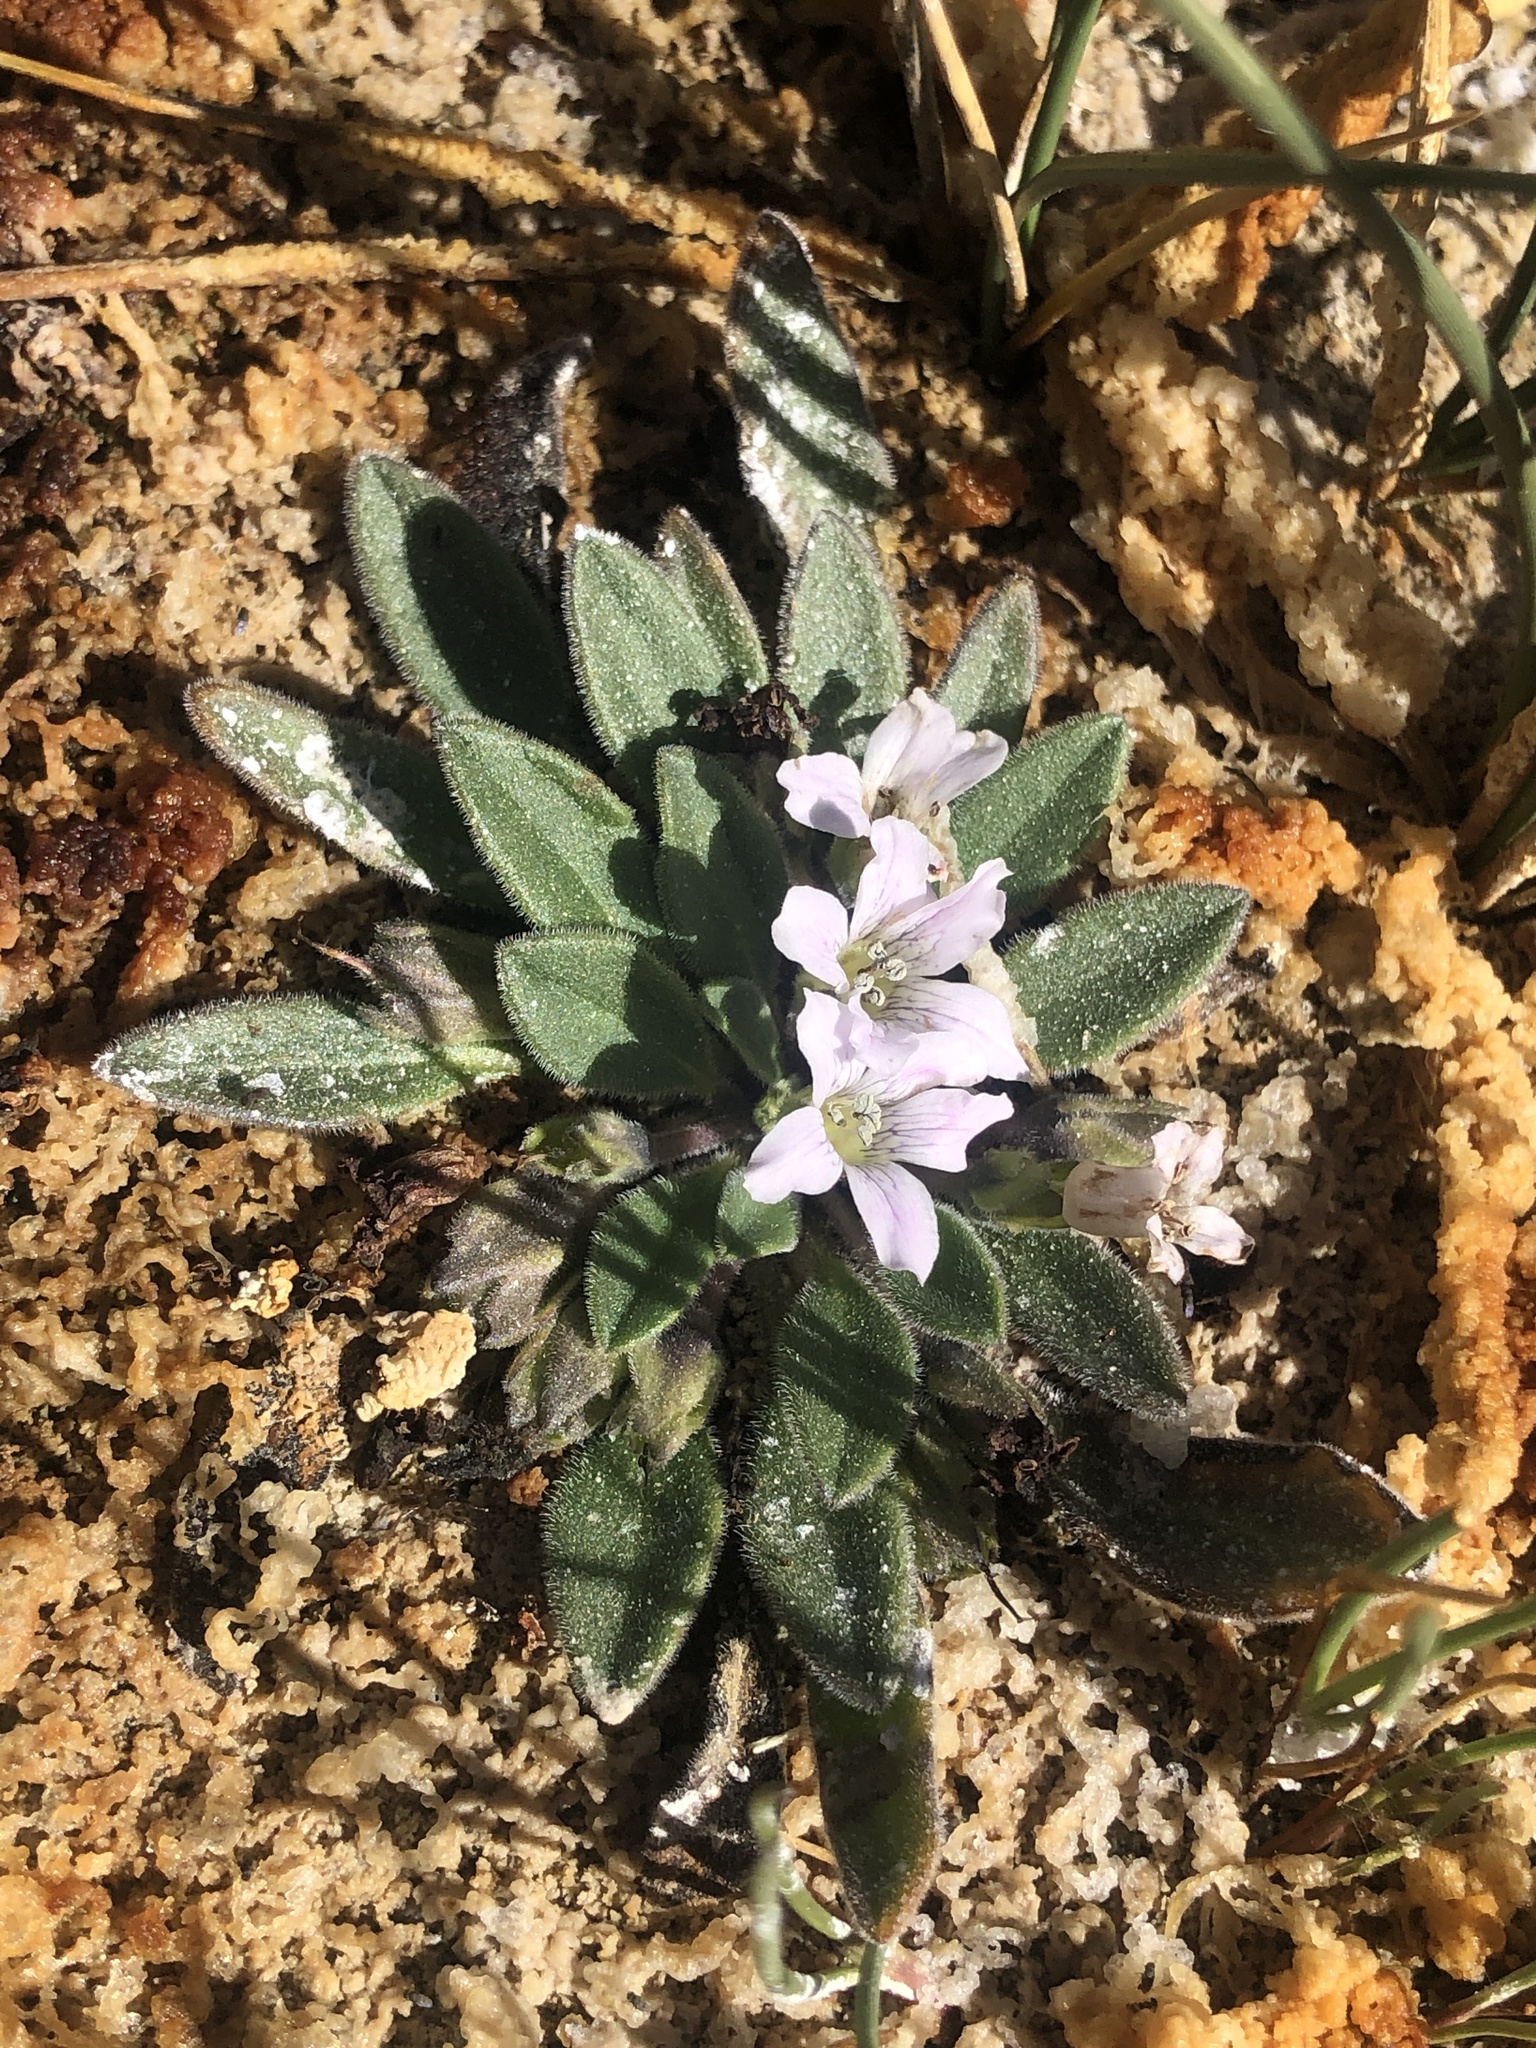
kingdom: Plantae
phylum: Tracheophyta
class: Magnoliopsida
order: Boraginales
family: Hydrophyllaceae
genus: Hesperochiron
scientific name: Hesperochiron californicus
